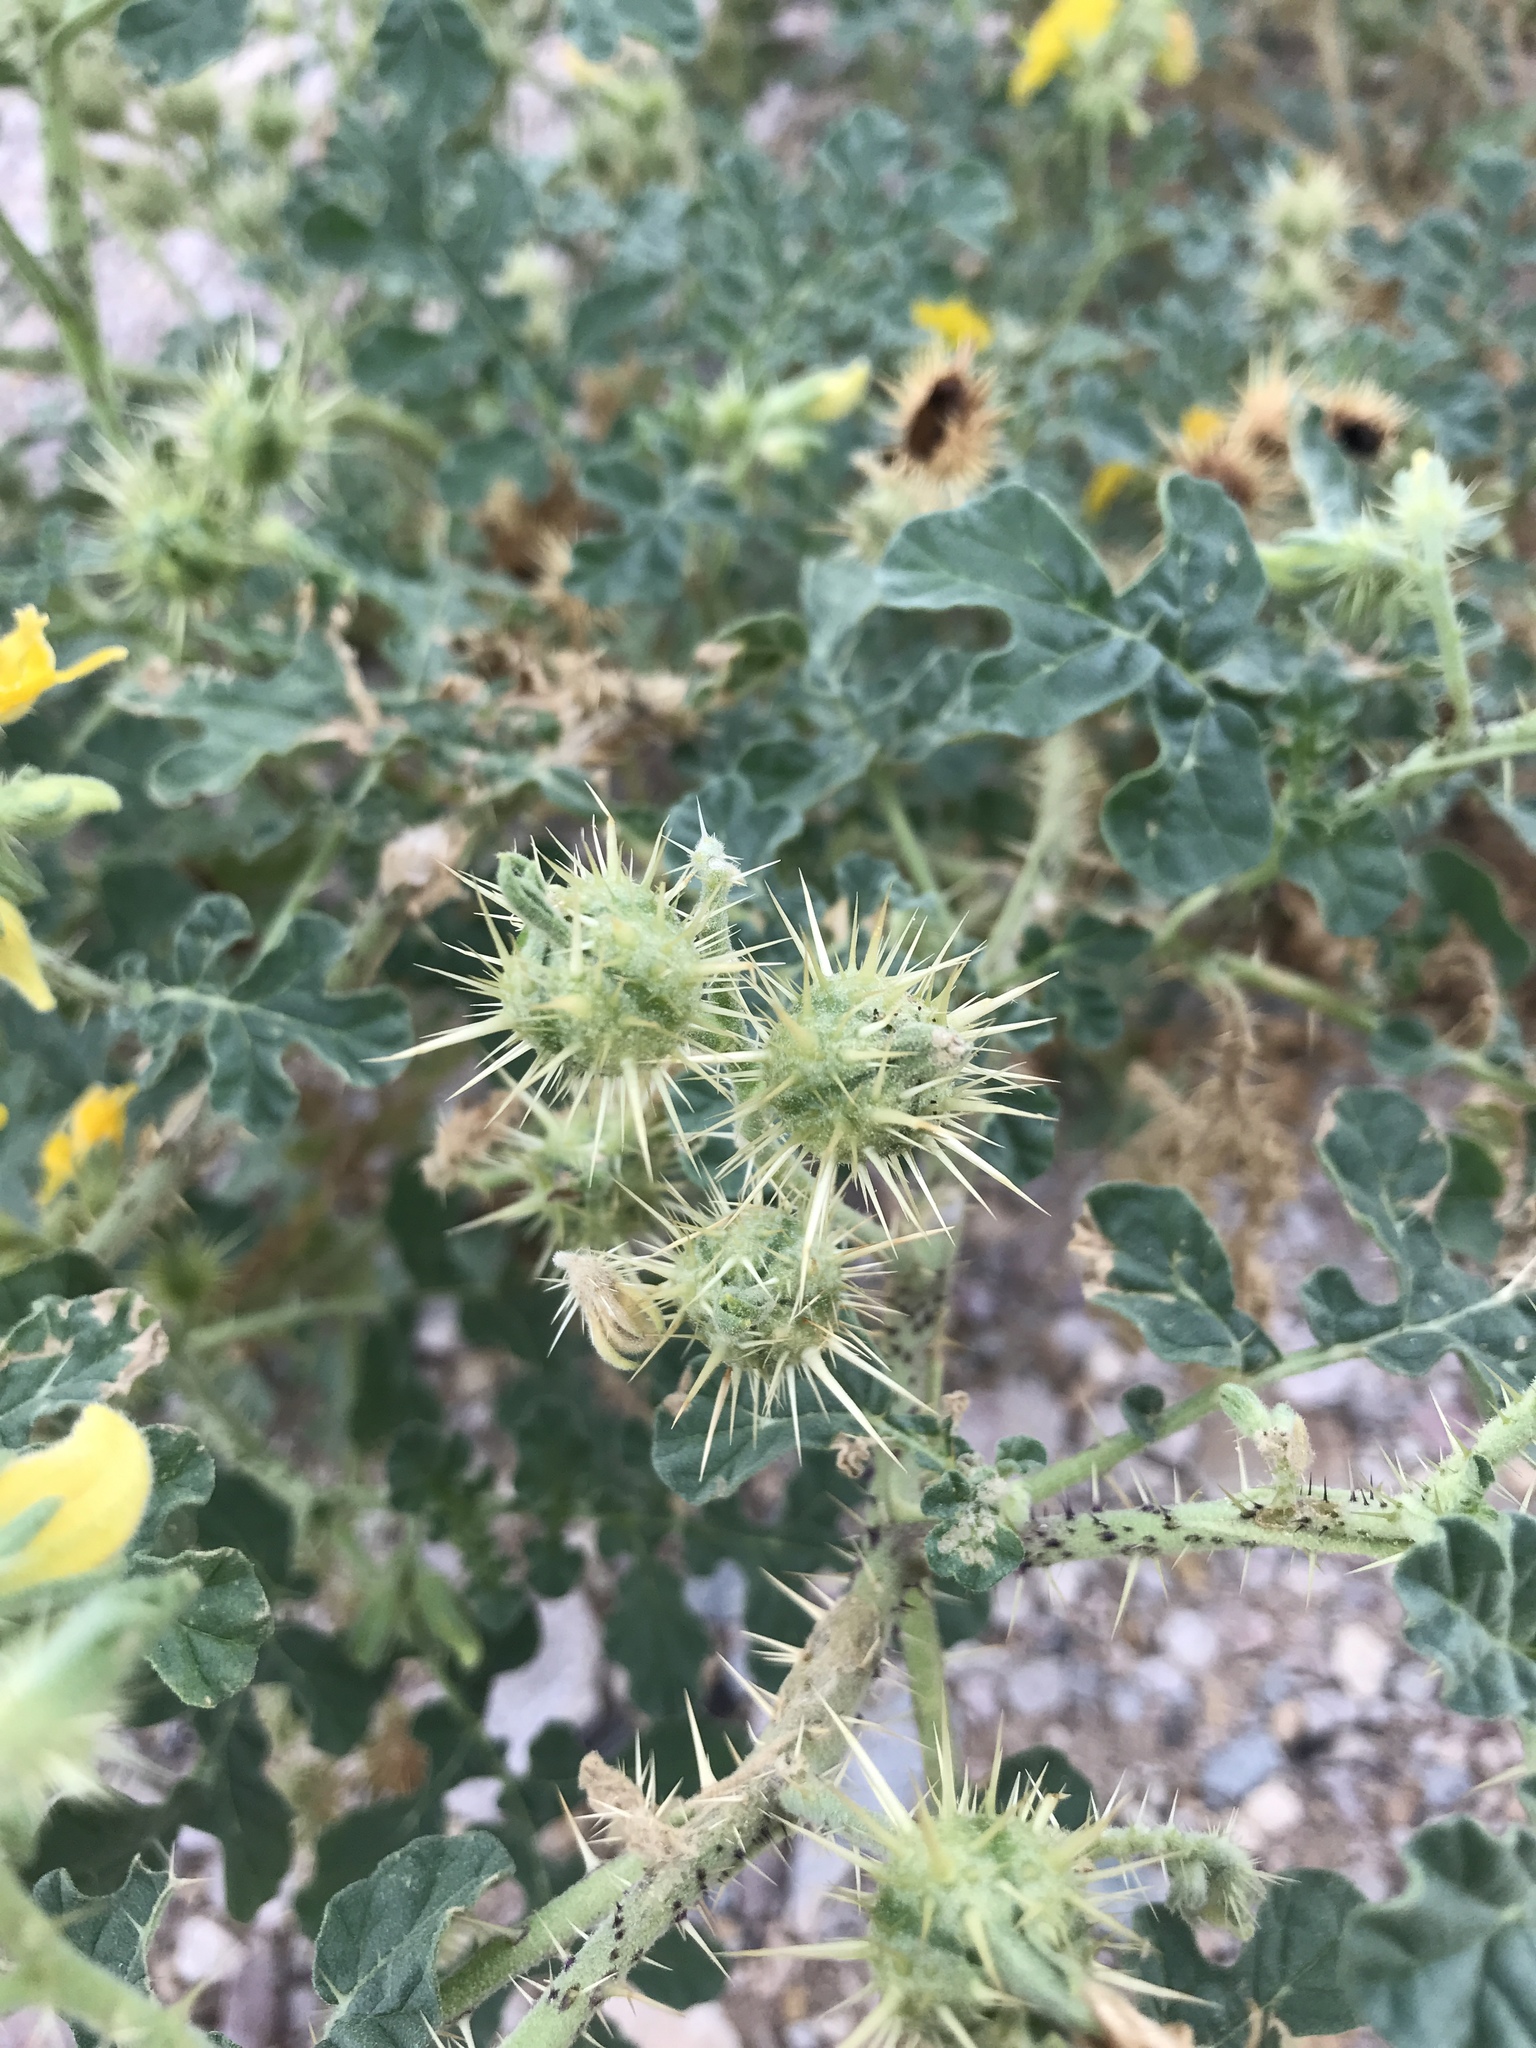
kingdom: Plantae
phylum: Tracheophyta
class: Magnoliopsida
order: Solanales
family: Solanaceae
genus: Solanum
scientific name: Solanum angustifolium
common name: Buffalobur nightshade
